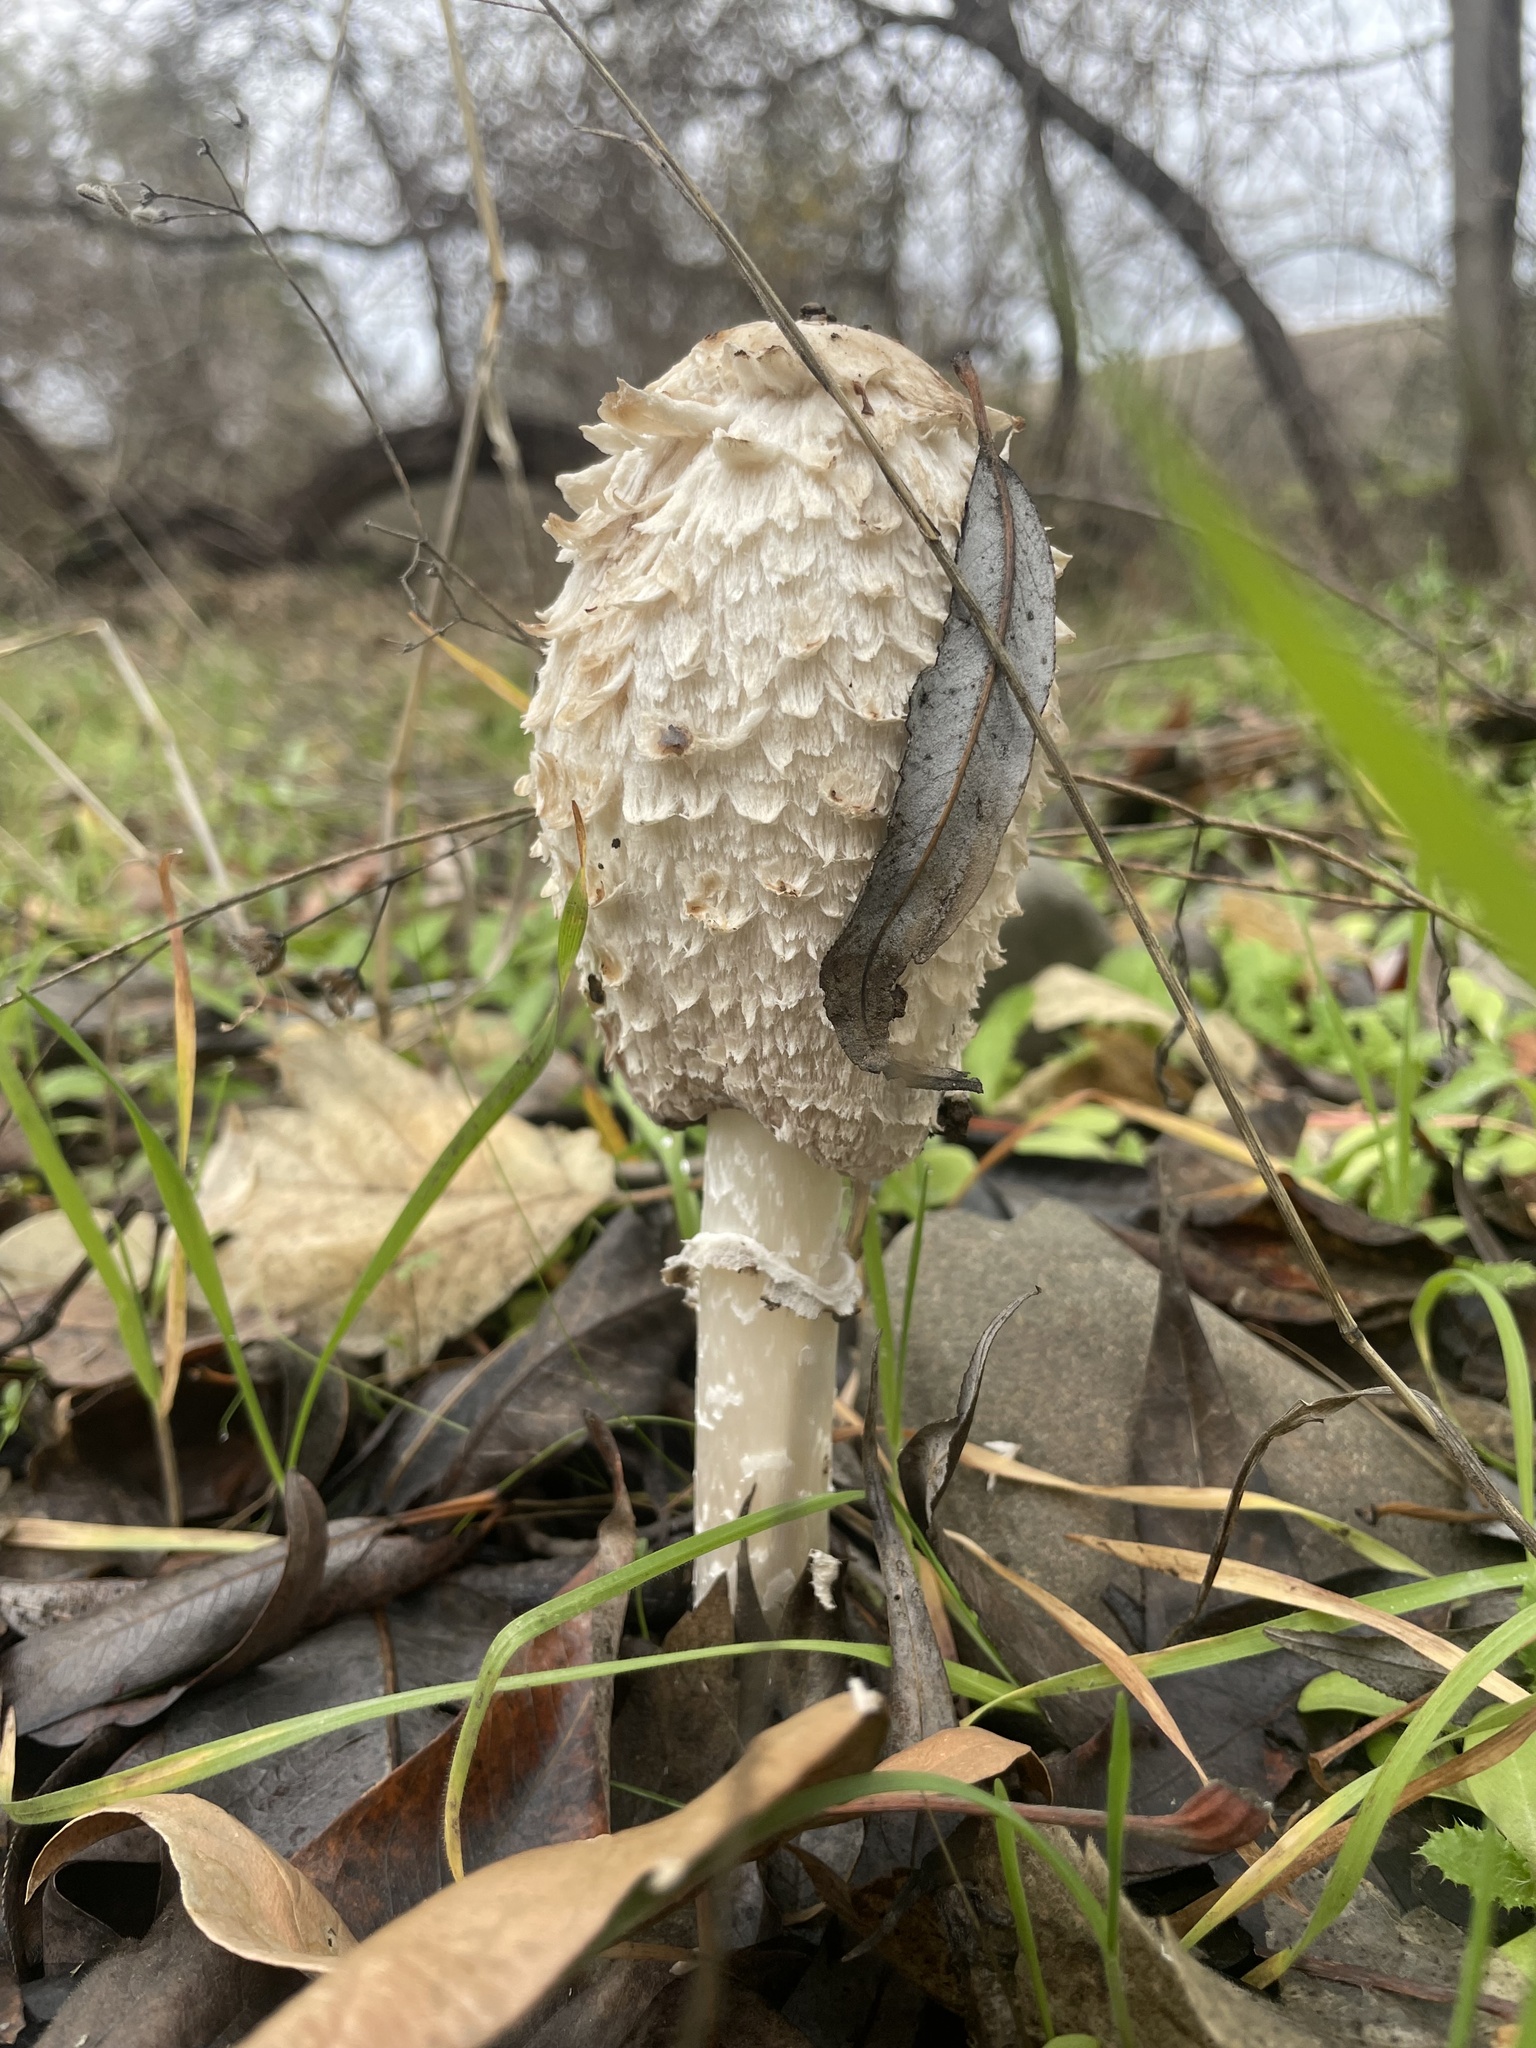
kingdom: Fungi
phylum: Basidiomycota
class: Agaricomycetes
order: Agaricales
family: Agaricaceae
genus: Coprinus
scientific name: Coprinus comatus
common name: Lawyer's wig
